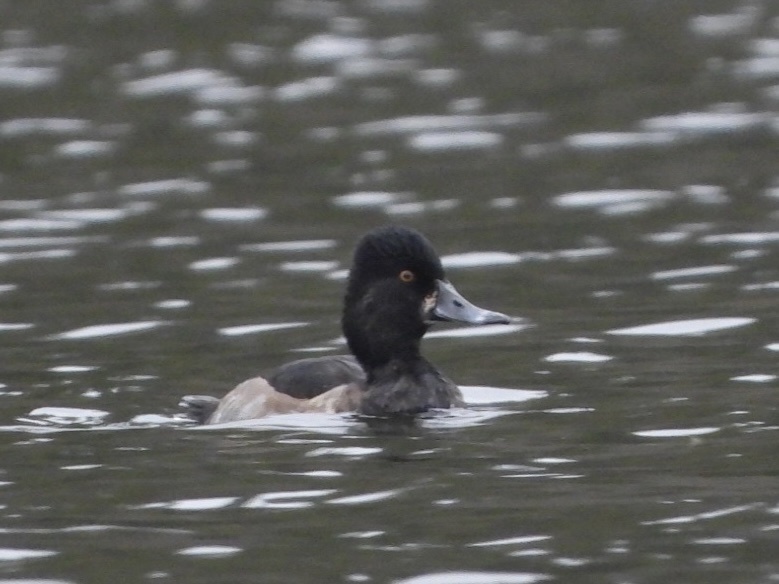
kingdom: Animalia
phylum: Chordata
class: Aves
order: Anseriformes
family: Anatidae
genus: Aythya
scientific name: Aythya collaris
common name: Ring-necked duck
